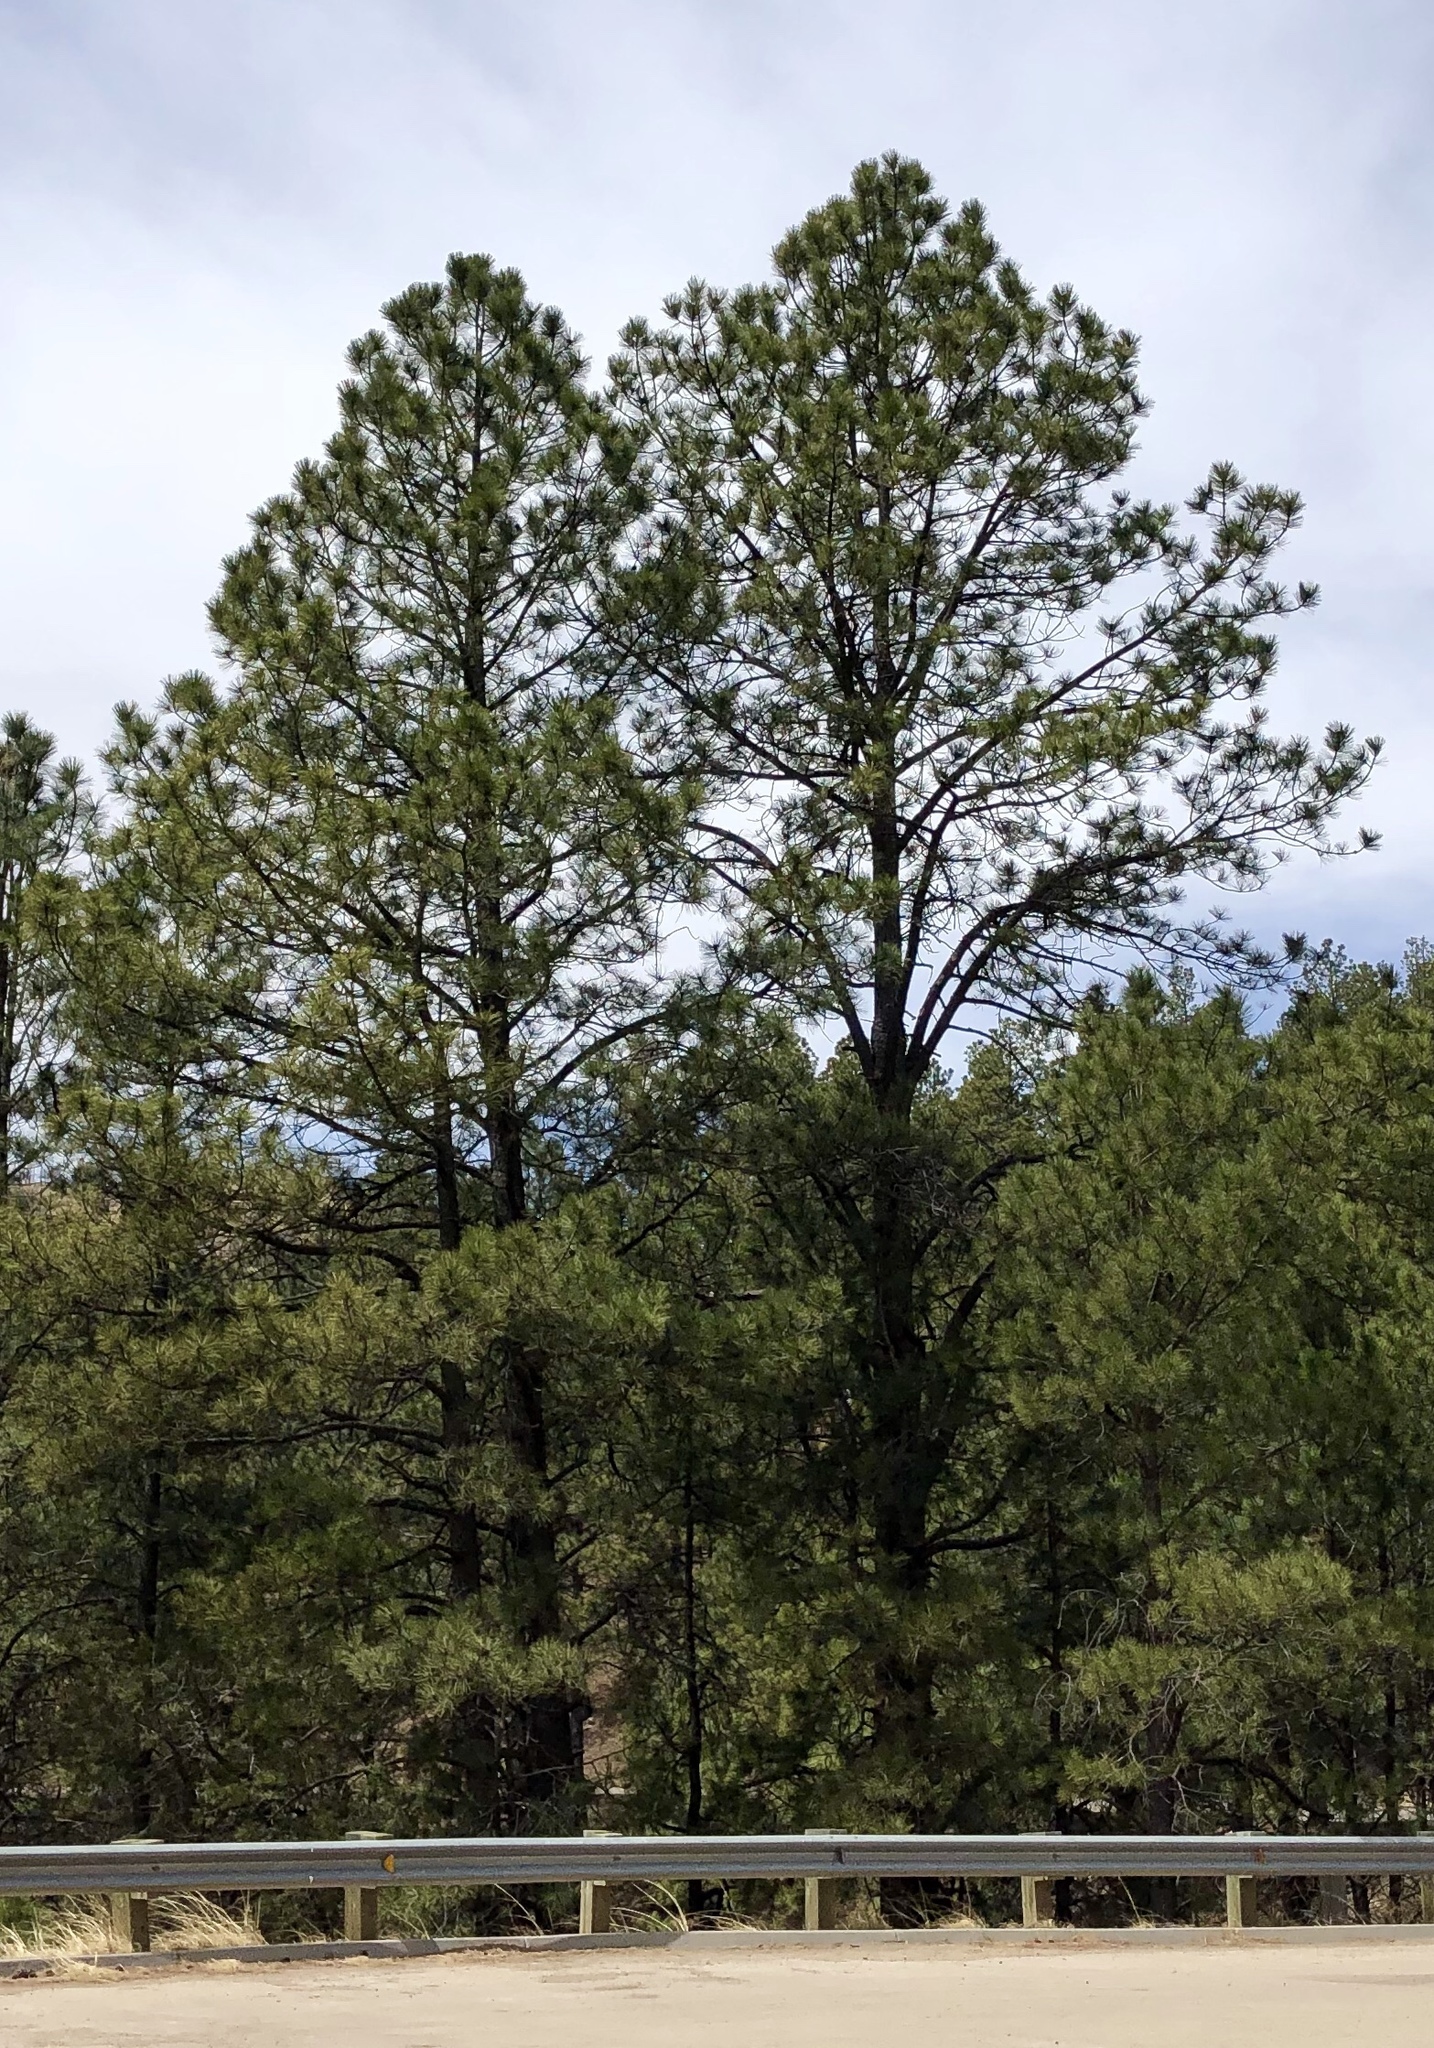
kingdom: Plantae
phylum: Tracheophyta
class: Pinopsida
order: Pinales
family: Pinaceae
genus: Pinus
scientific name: Pinus ponderosa
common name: Western yellow-pine
